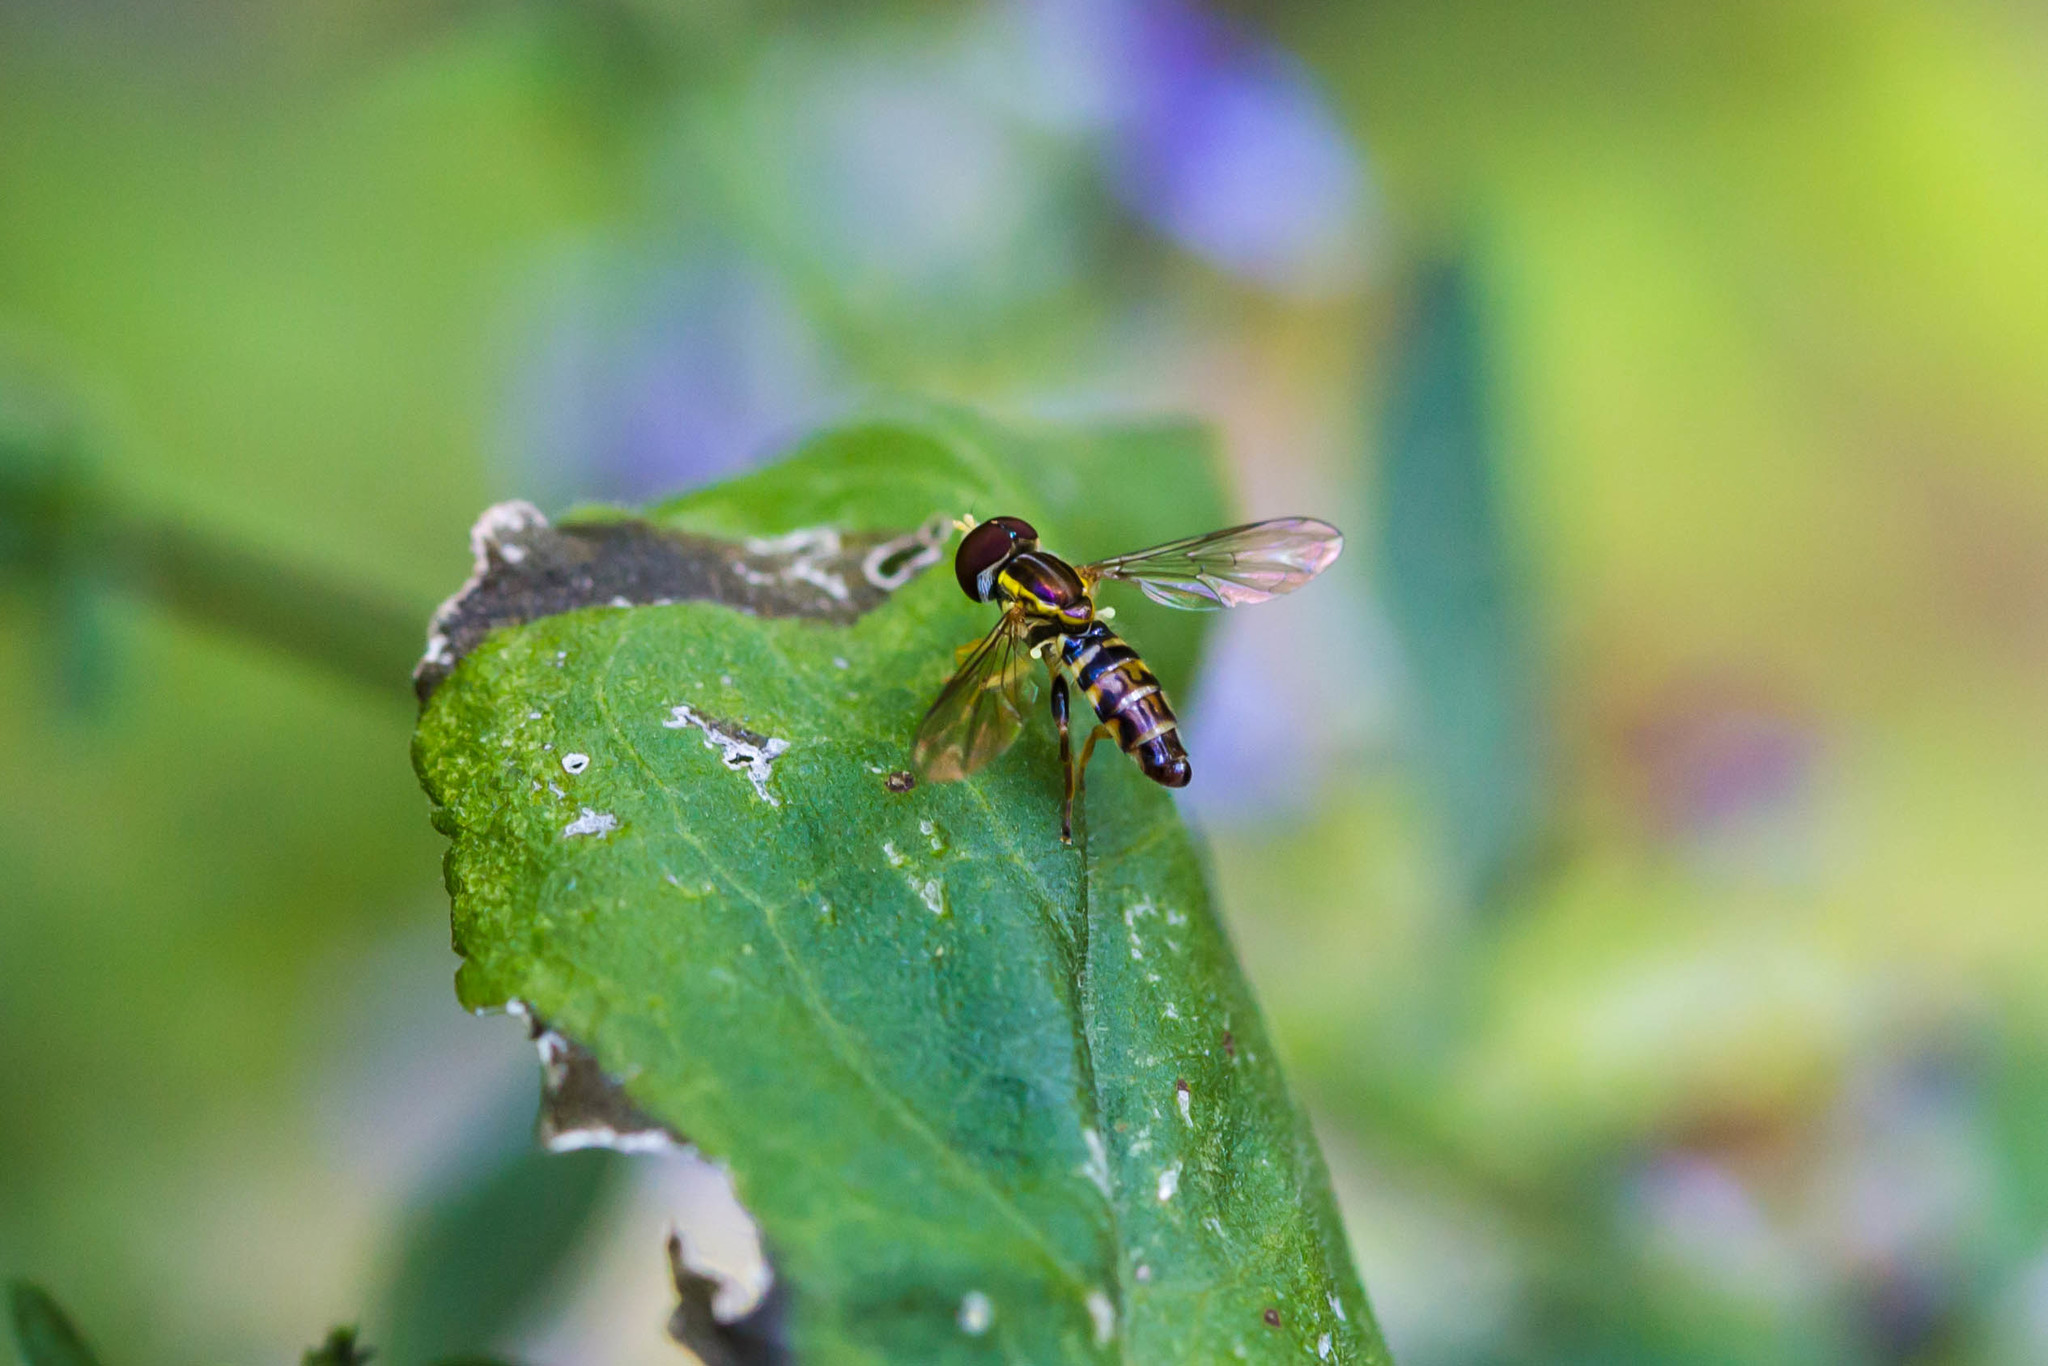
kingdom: Animalia
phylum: Arthropoda
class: Insecta
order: Diptera
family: Syrphidae
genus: Toxomerus
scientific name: Toxomerus geminatus
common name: Eastern calligrapher
